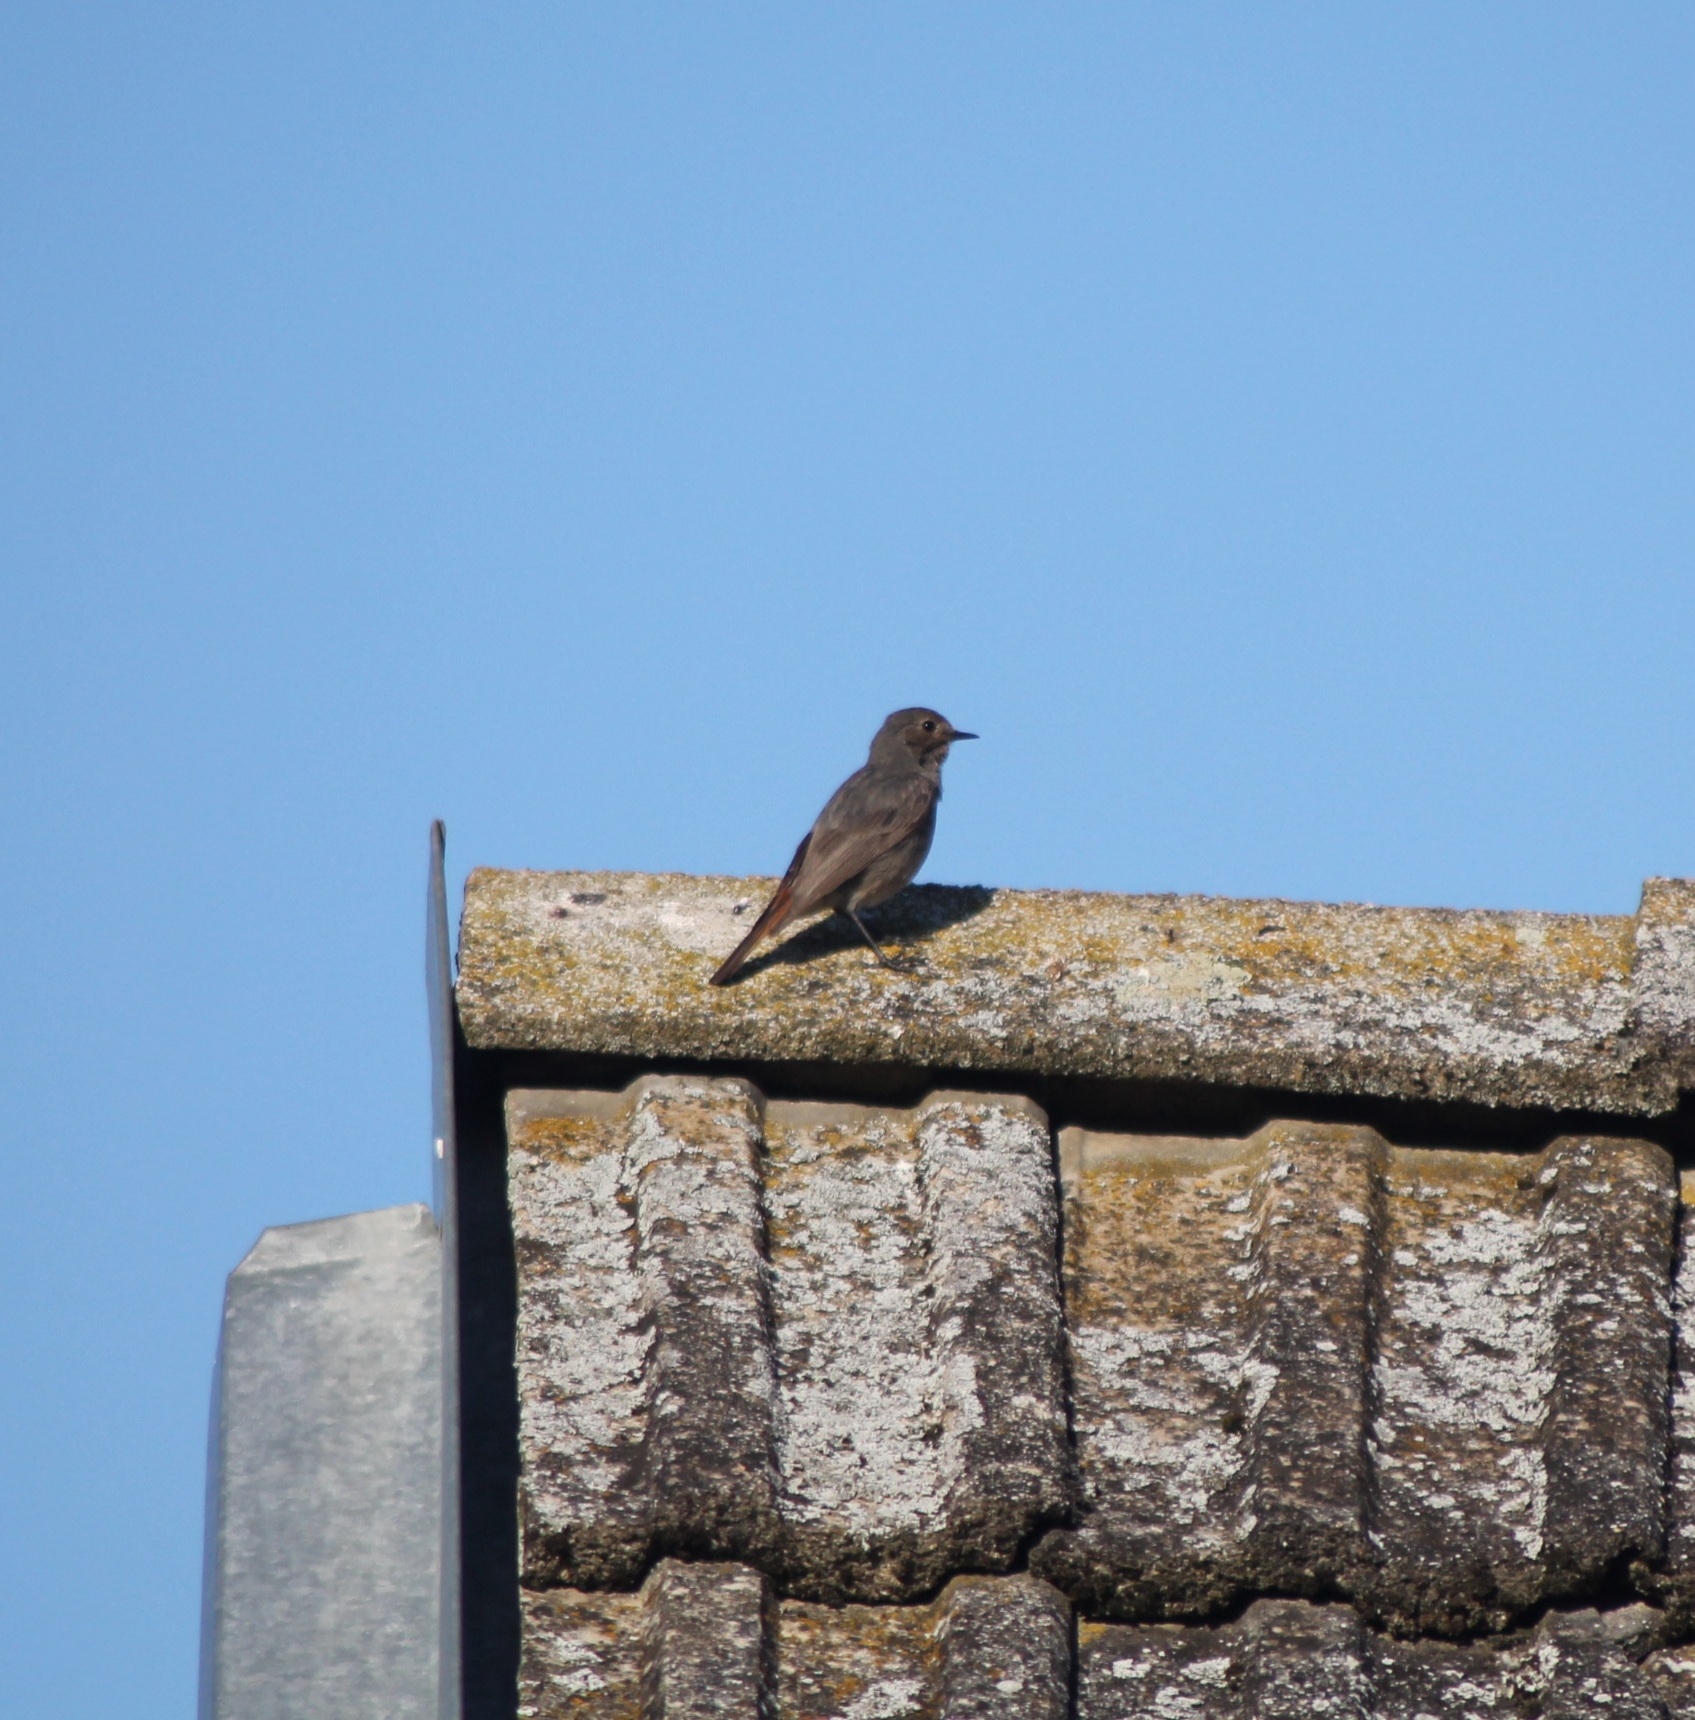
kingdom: Animalia
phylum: Chordata
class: Aves
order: Passeriformes
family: Muscicapidae
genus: Phoenicurus
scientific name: Phoenicurus ochruros
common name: Black redstart
